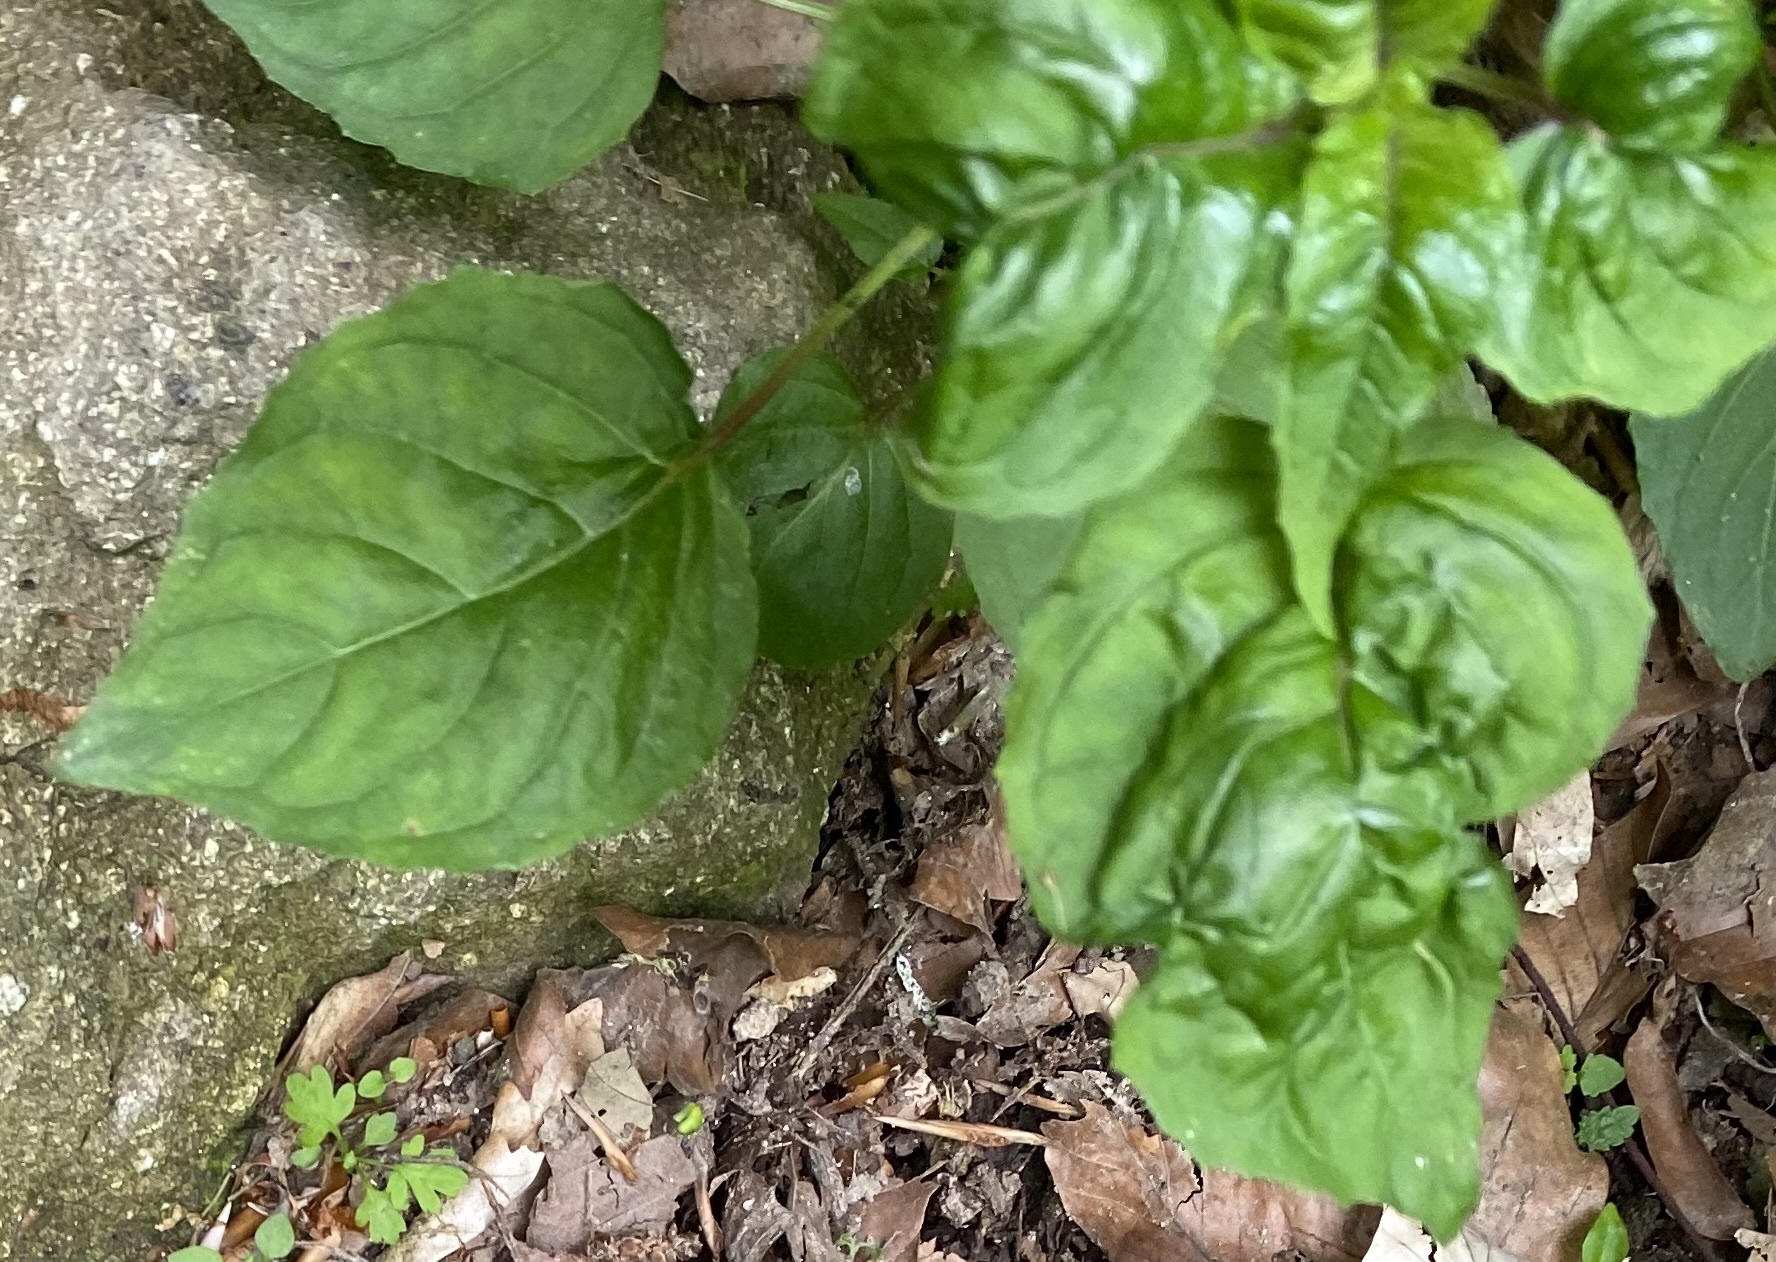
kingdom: Plantae
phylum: Tracheophyta
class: Magnoliopsida
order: Myrtales
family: Onagraceae
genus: Circaea
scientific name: Circaea lutetiana
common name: Enchanter's-nightshade
